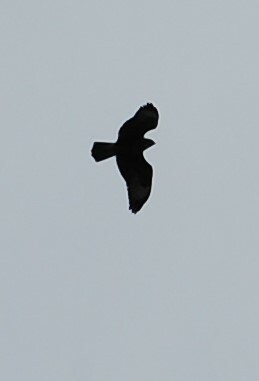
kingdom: Animalia
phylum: Chordata
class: Aves
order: Accipitriformes
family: Accipitridae
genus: Buteo
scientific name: Buteo buteo
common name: Common buzzard
